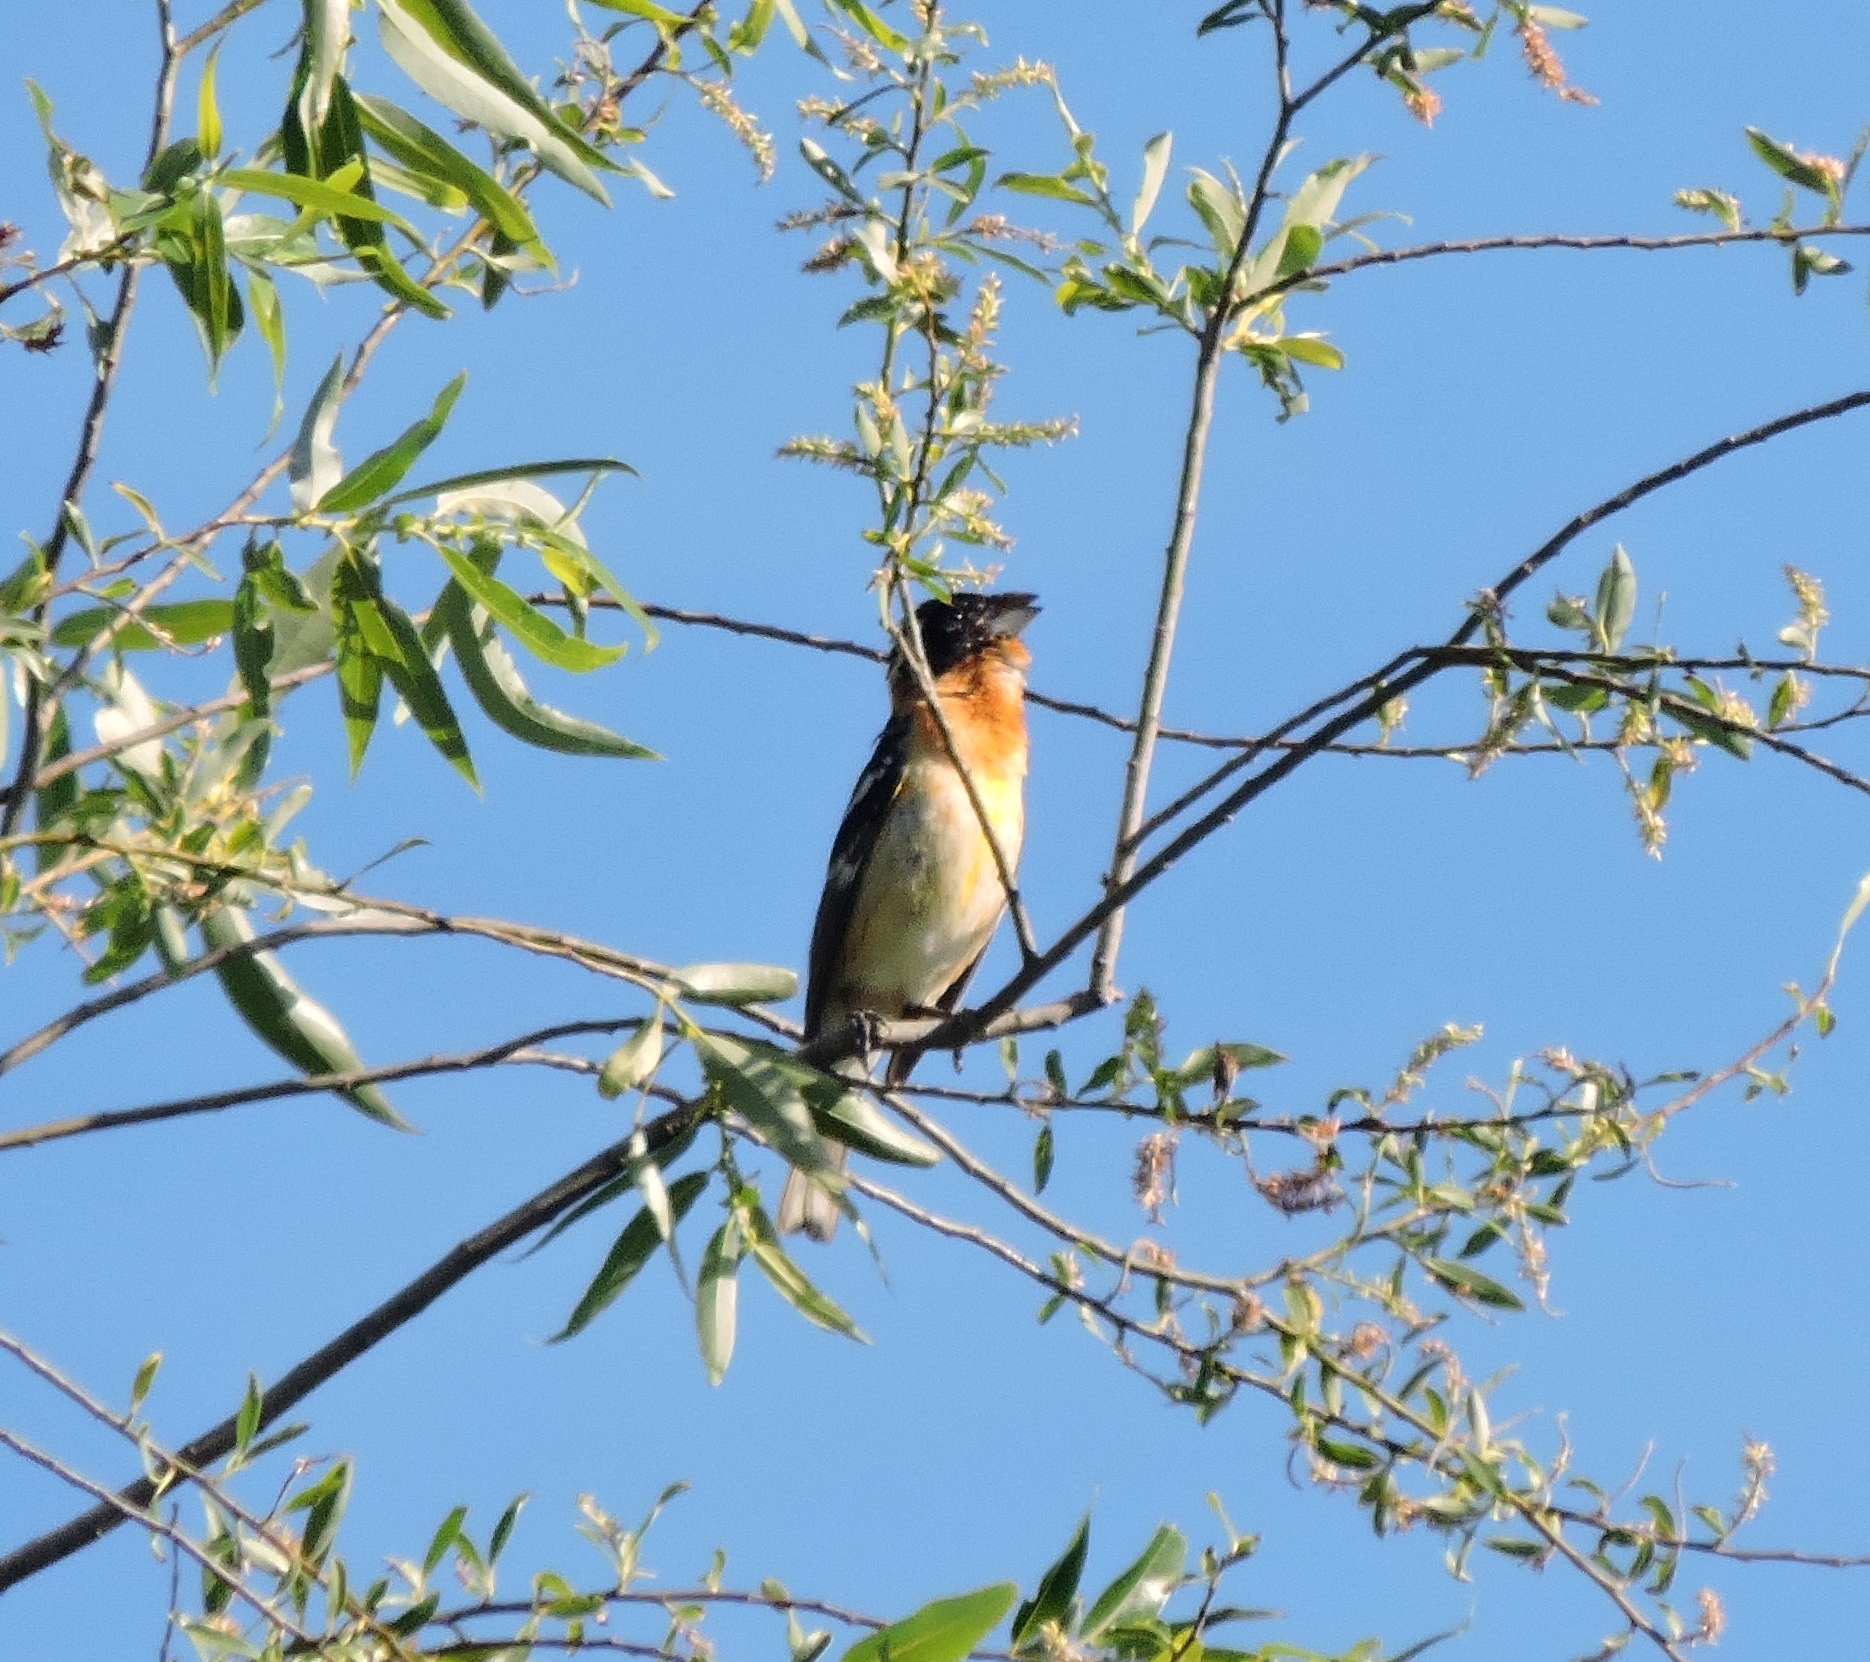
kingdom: Animalia
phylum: Chordata
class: Aves
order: Passeriformes
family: Cardinalidae
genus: Pheucticus
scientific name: Pheucticus melanocephalus
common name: Black-headed grosbeak
